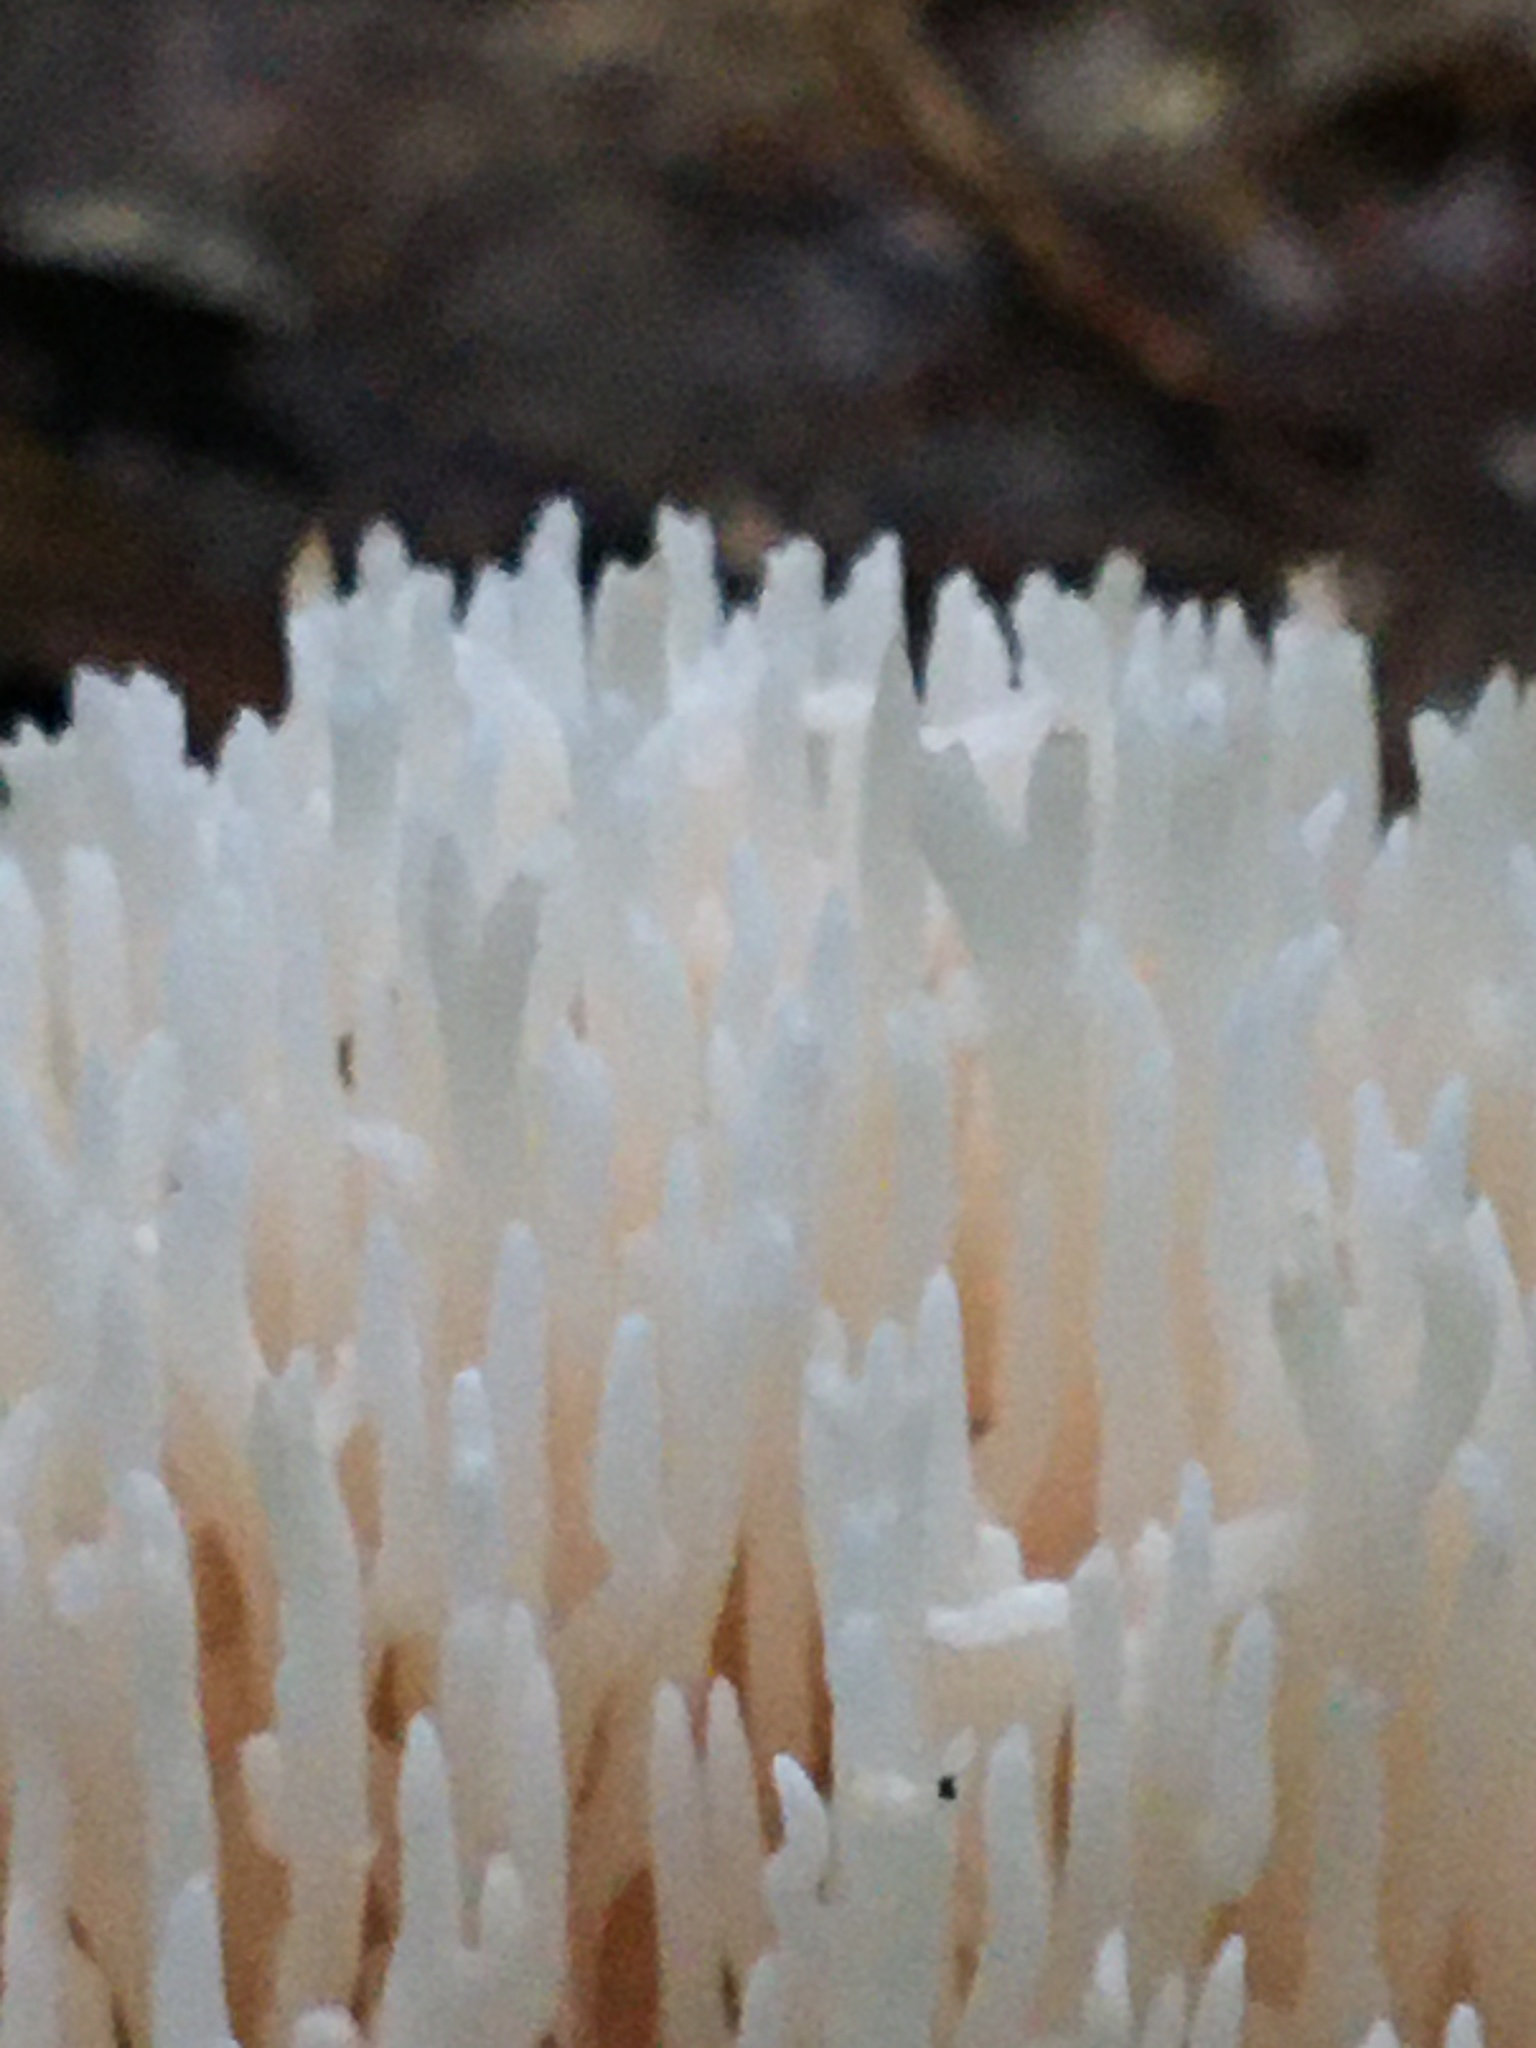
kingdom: Fungi
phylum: Basidiomycota
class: Agaricomycetes
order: Agaricales
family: Clavariaceae
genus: Ramariopsis
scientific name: Ramariopsis kunzei
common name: Ivory coral
